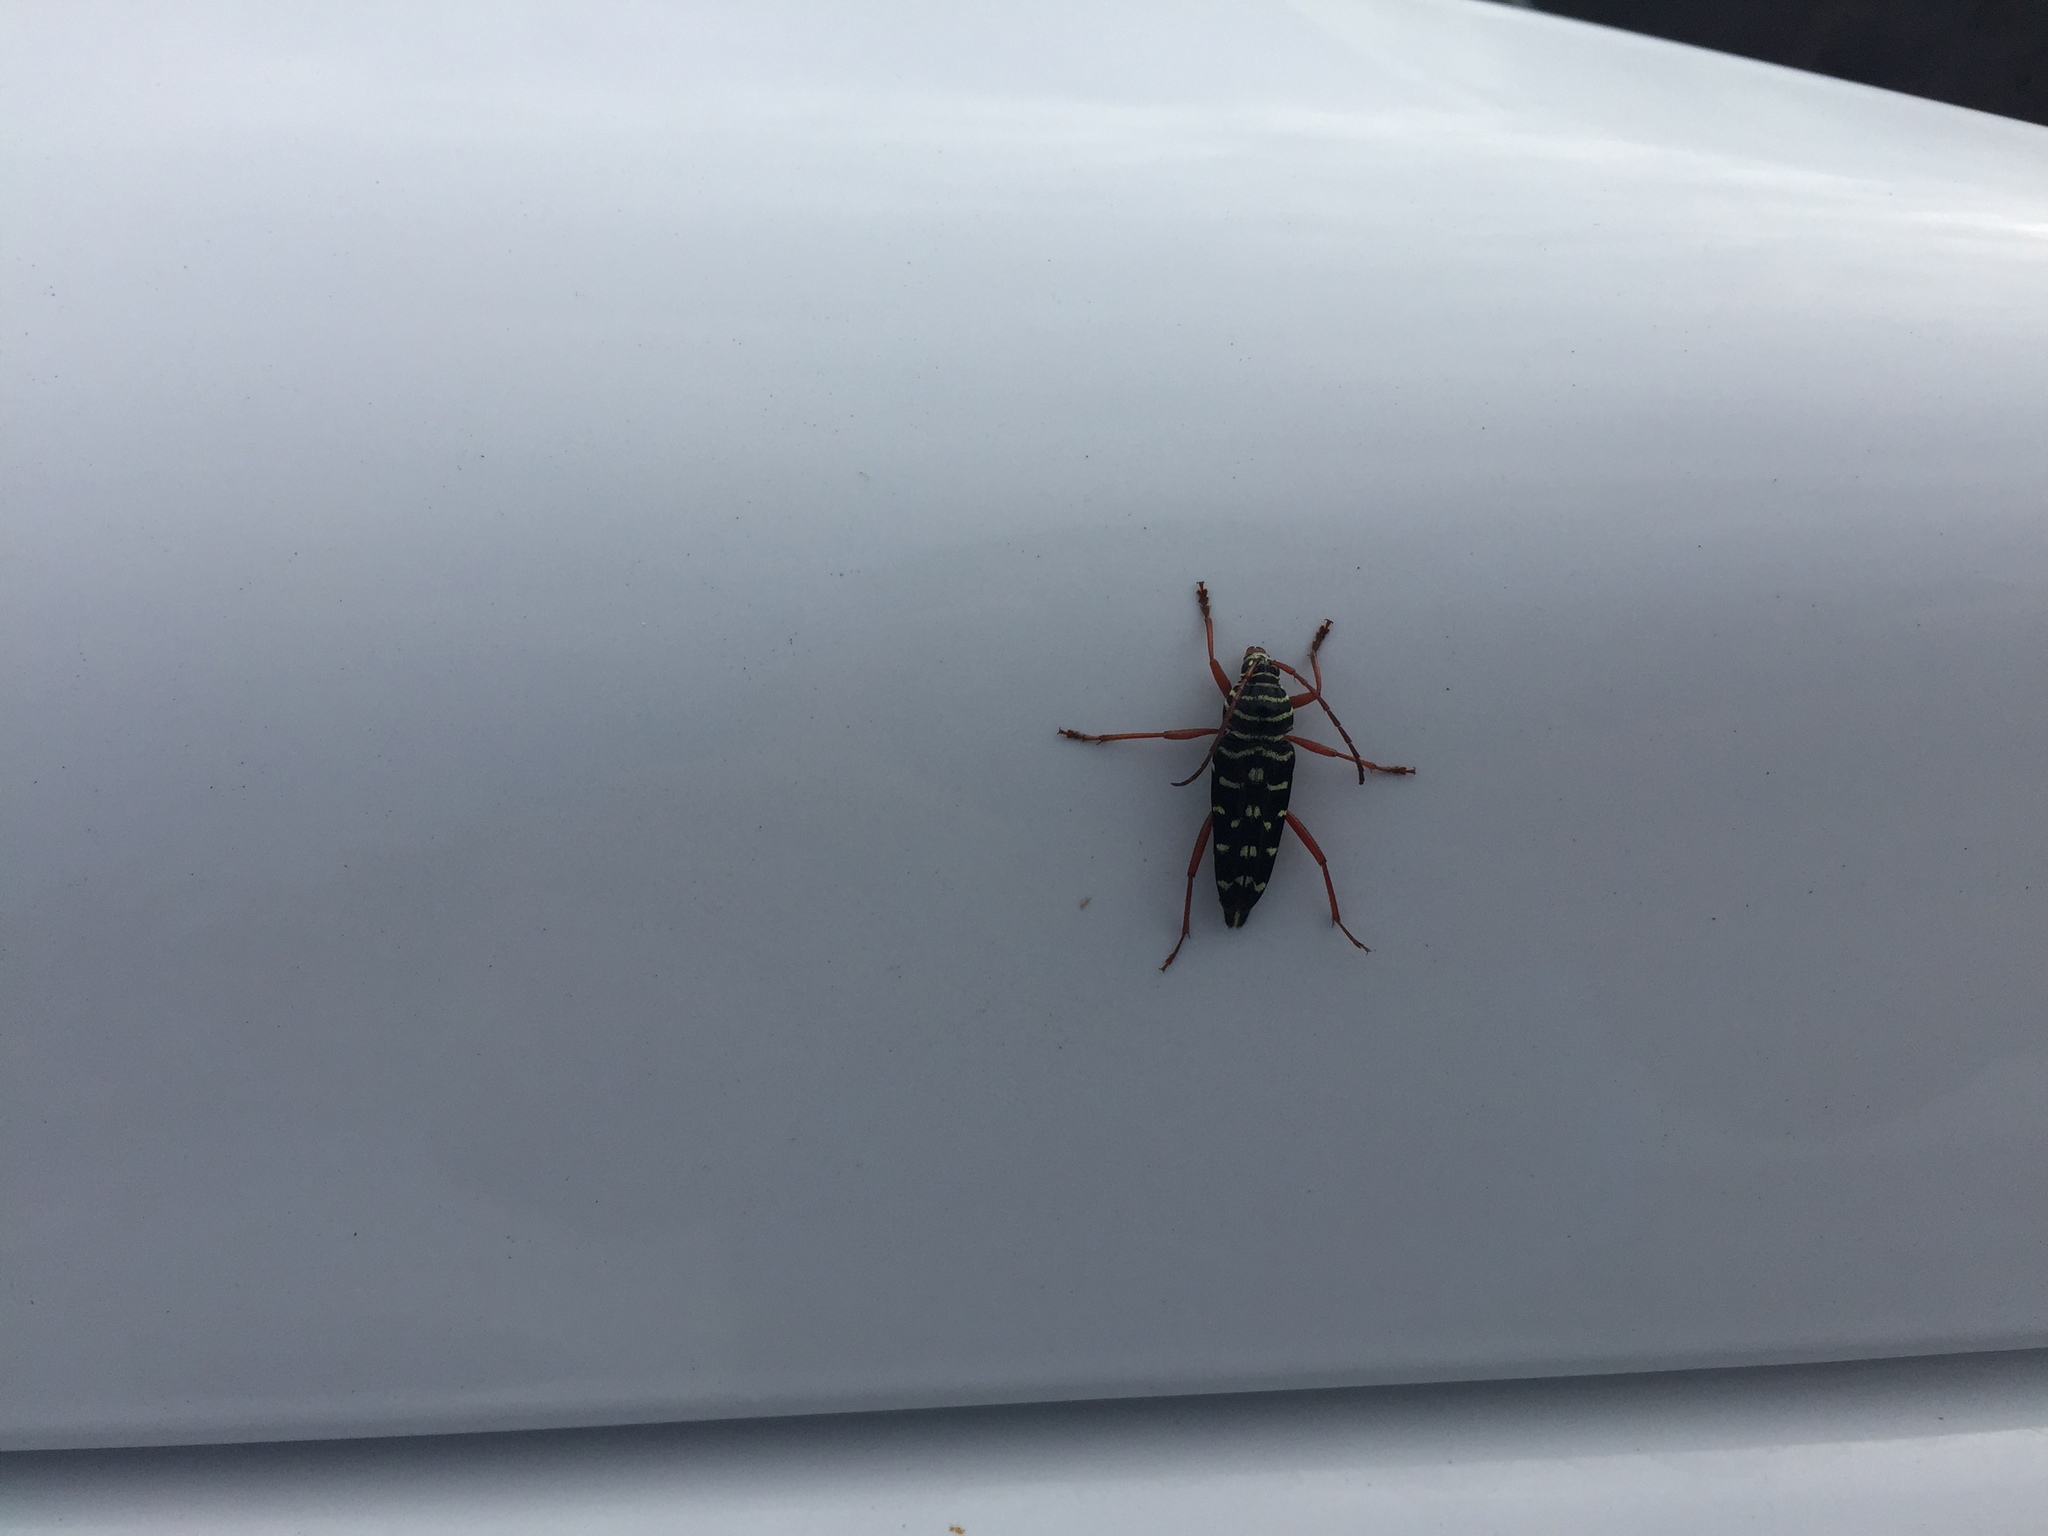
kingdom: Animalia
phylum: Arthropoda
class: Insecta
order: Coleoptera
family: Cerambycidae
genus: Placosternus
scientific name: Placosternus crinicornis
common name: Kiawe round headed borer
